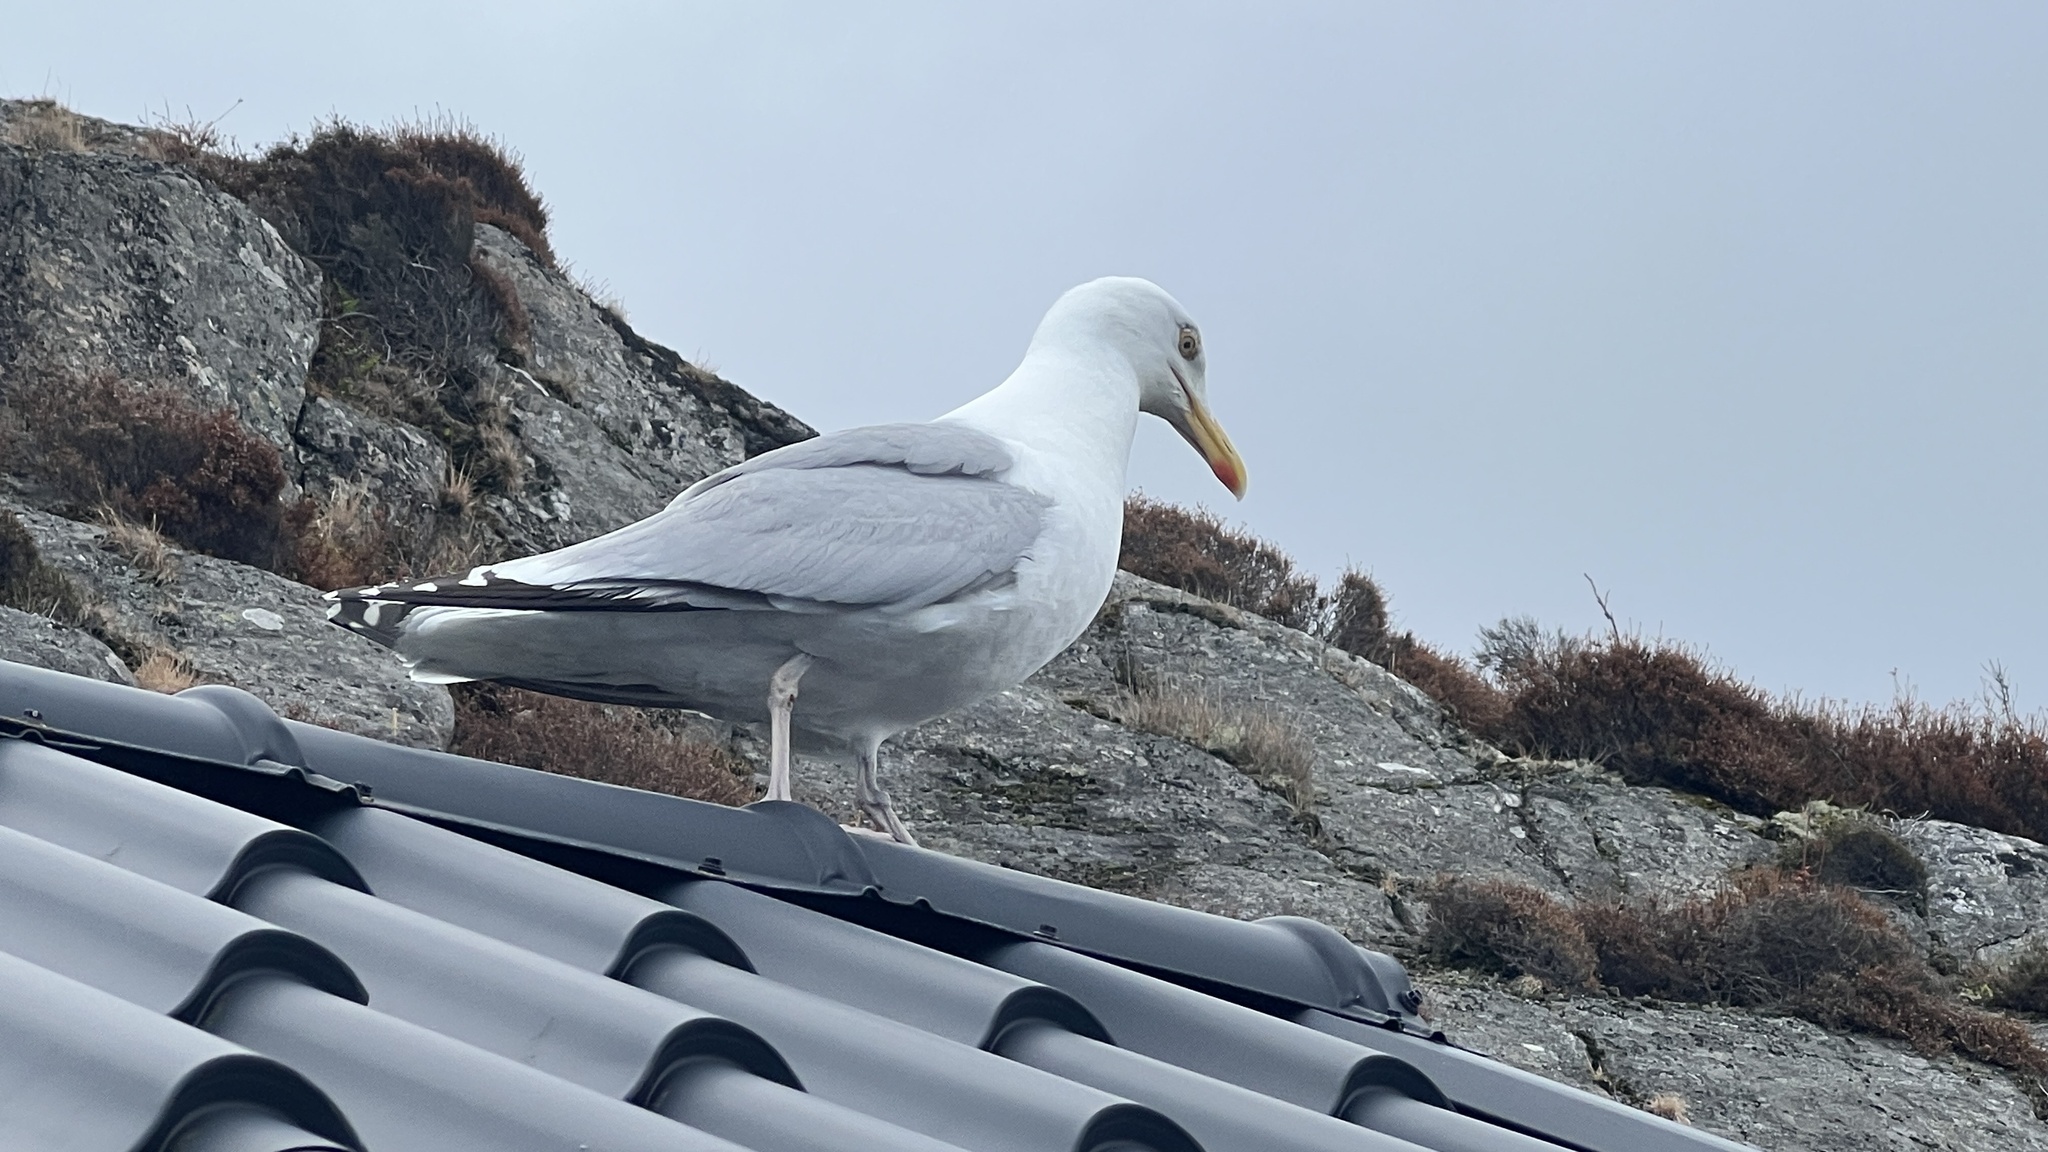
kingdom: Animalia
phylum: Chordata
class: Aves
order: Charadriiformes
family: Laridae
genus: Larus
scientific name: Larus argentatus
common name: Herring gull
